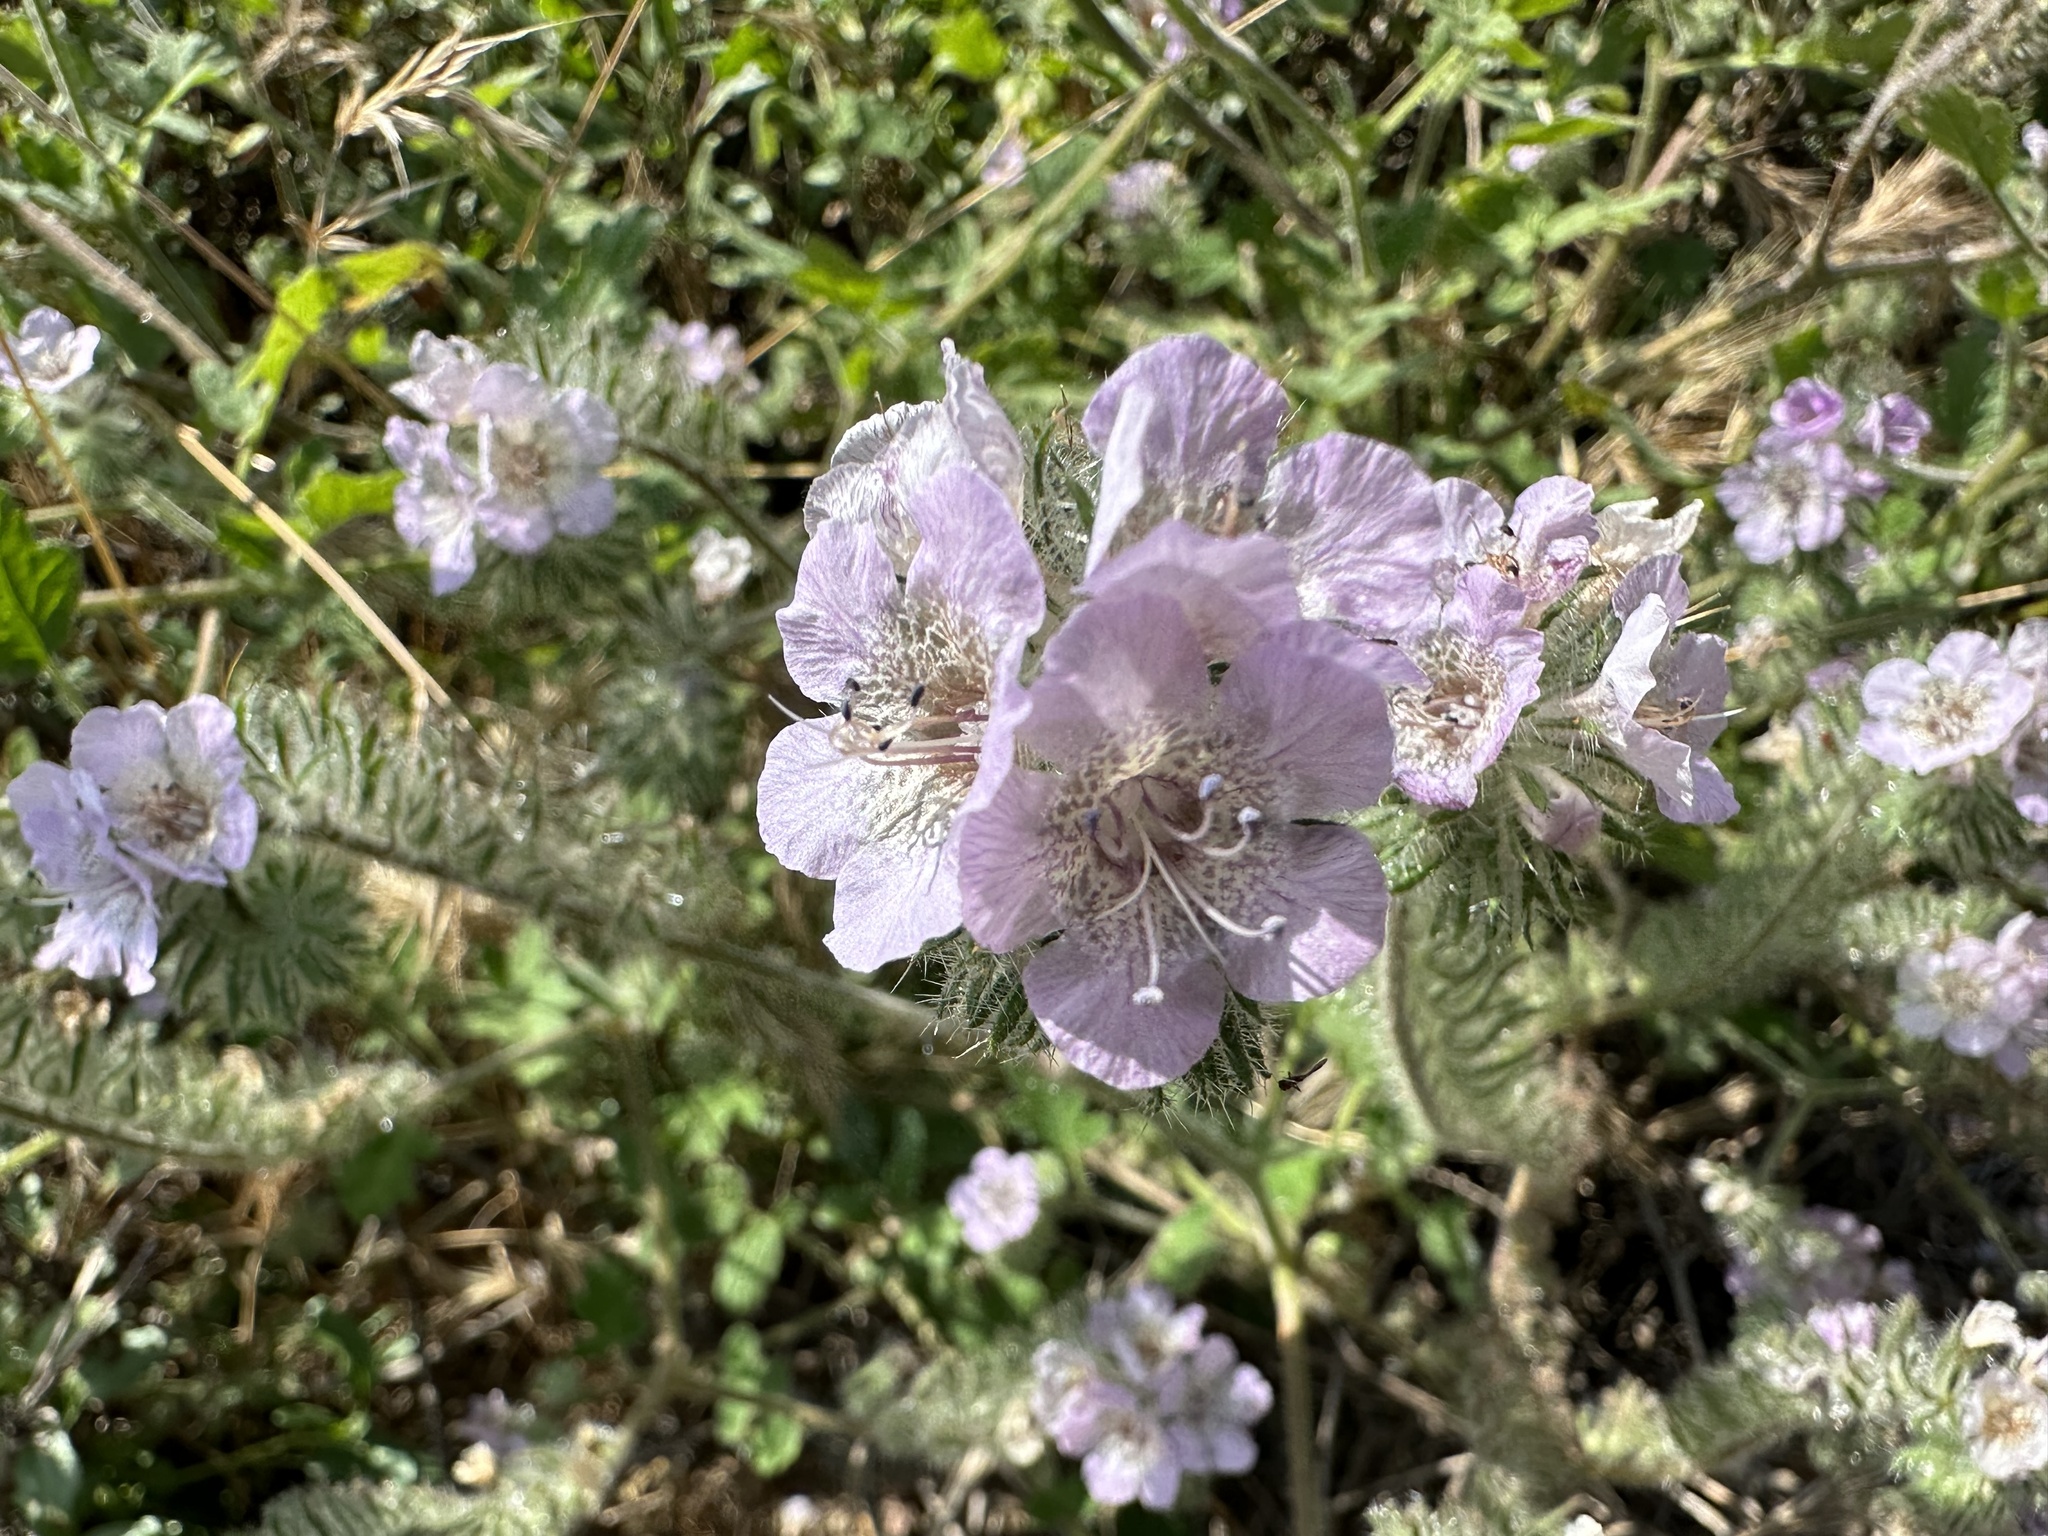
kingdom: Plantae
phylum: Tracheophyta
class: Magnoliopsida
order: Boraginales
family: Hydrophyllaceae
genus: Phacelia
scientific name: Phacelia cicutaria
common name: Caterpillar phacelia
